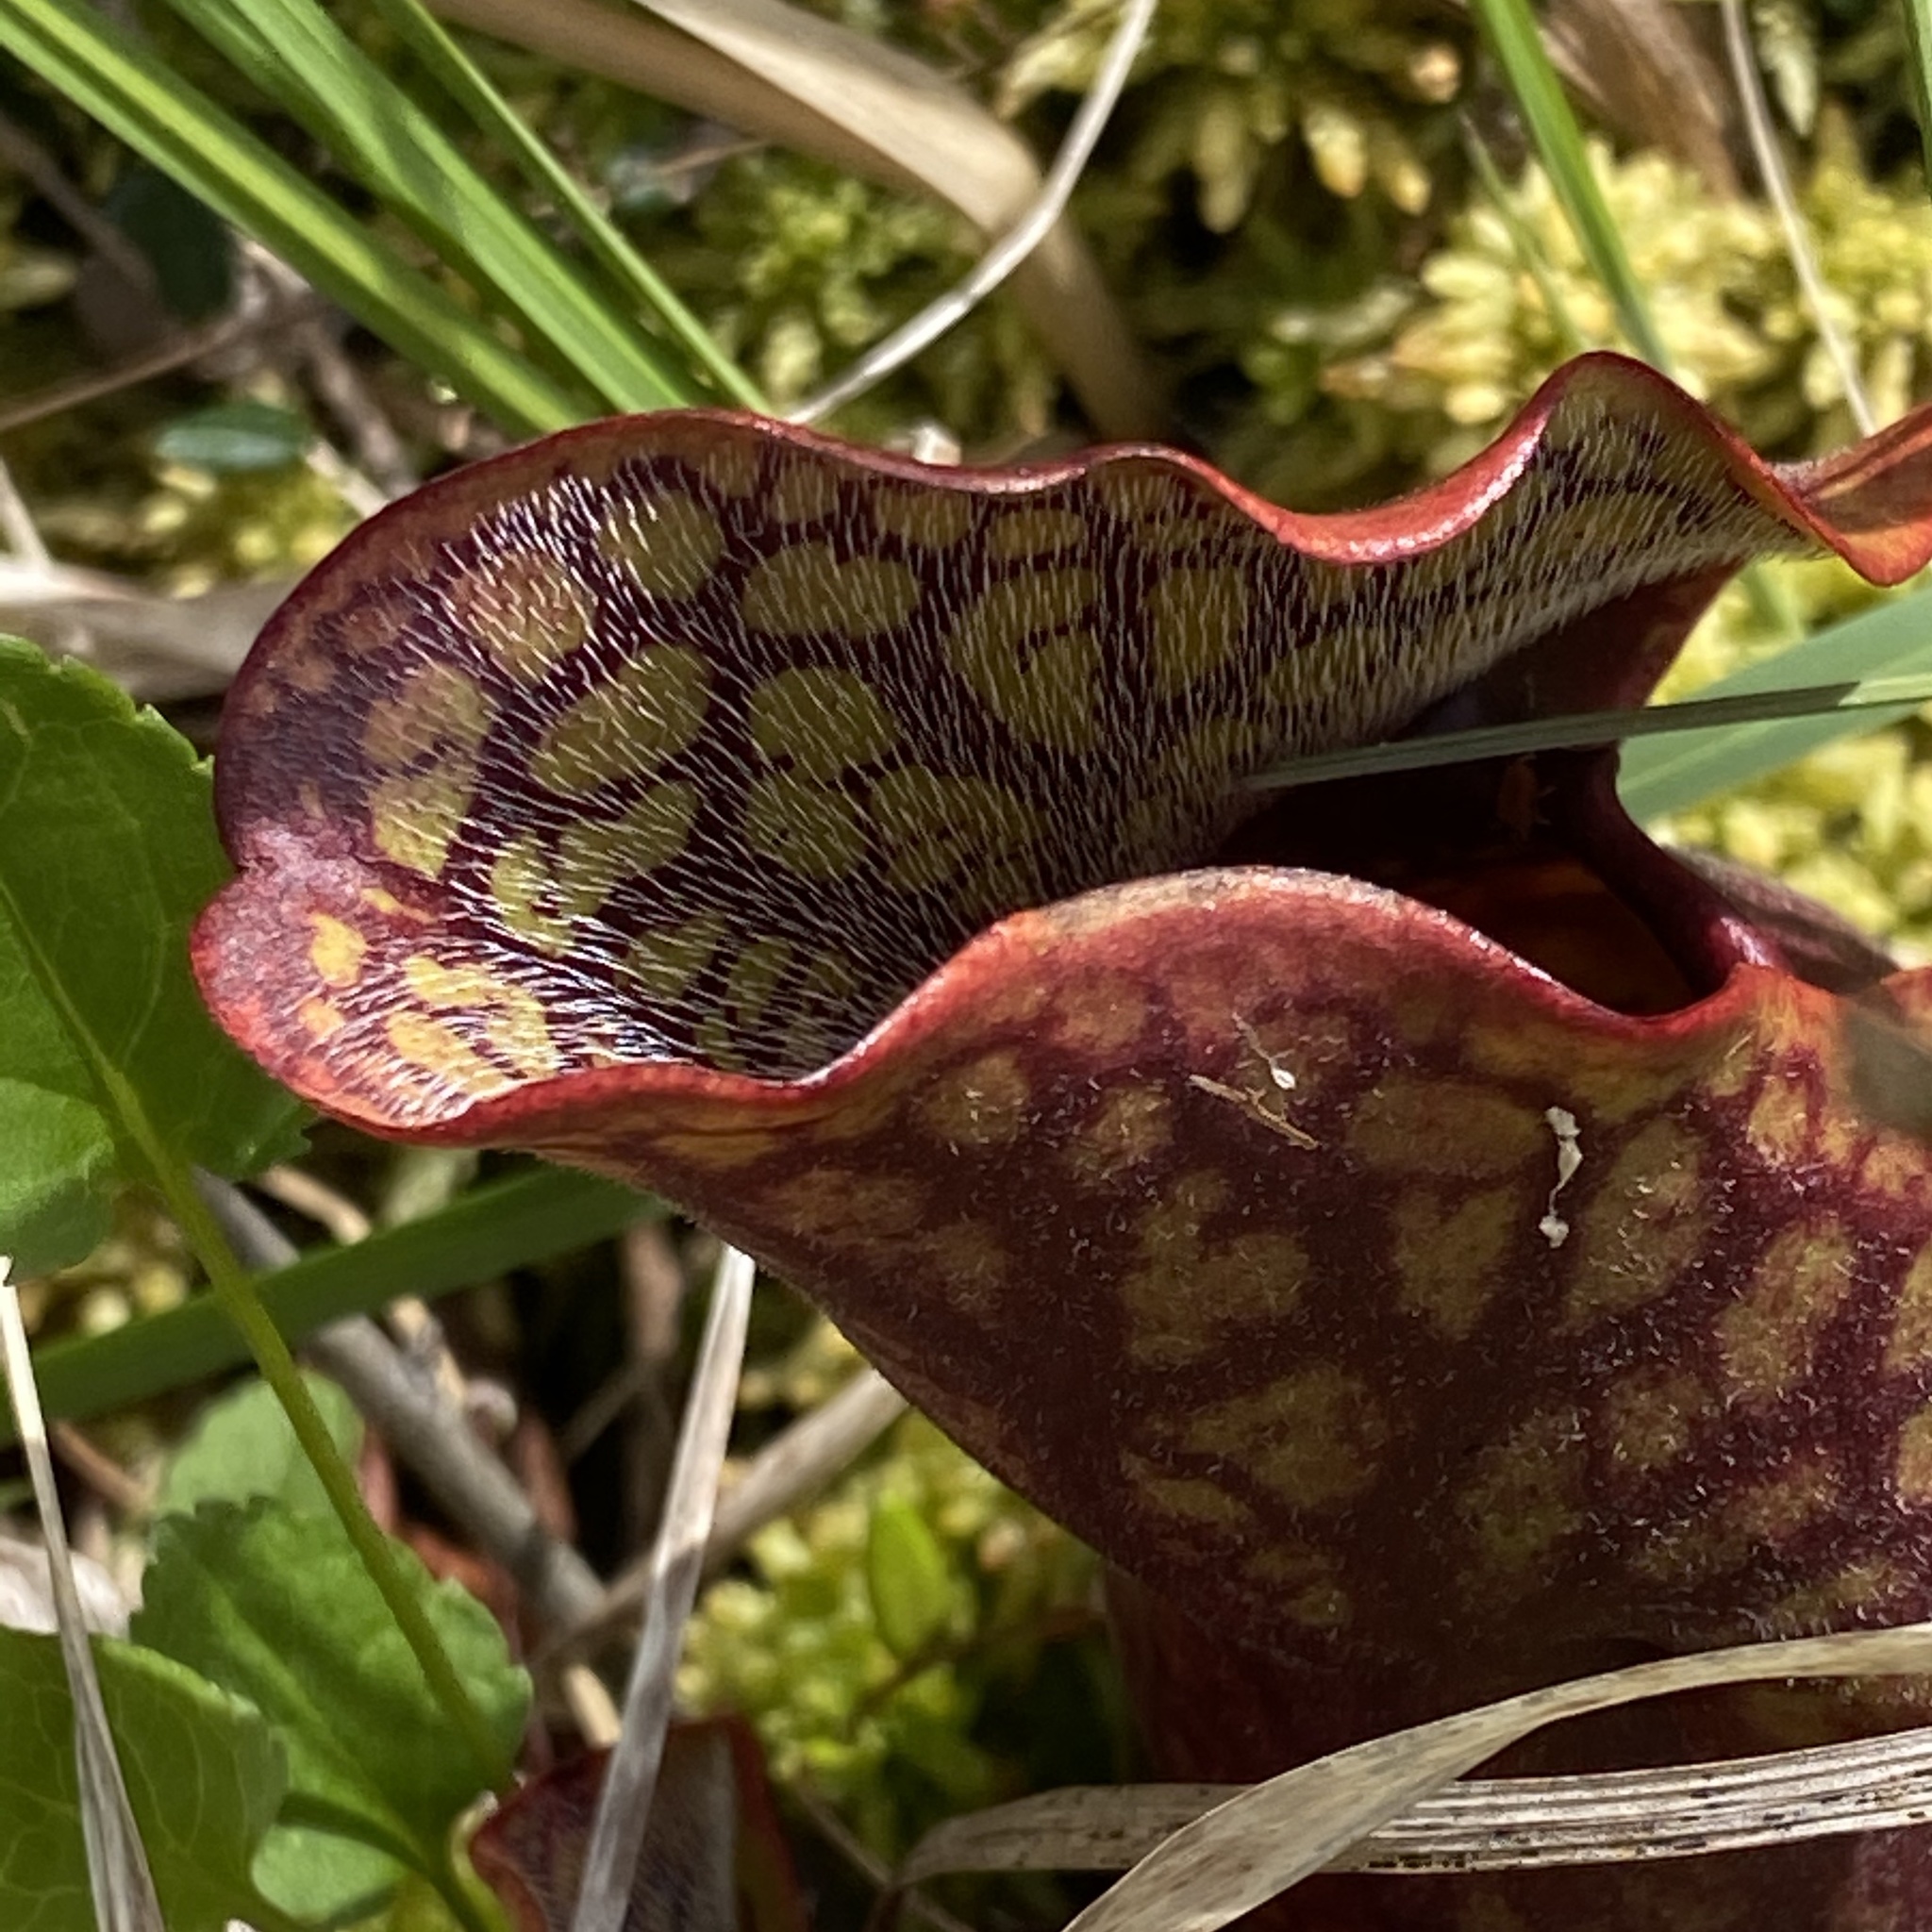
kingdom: Plantae
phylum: Tracheophyta
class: Magnoliopsida
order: Ericales
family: Sarraceniaceae
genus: Sarracenia
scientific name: Sarracenia purpurea
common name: Pitcherplant
